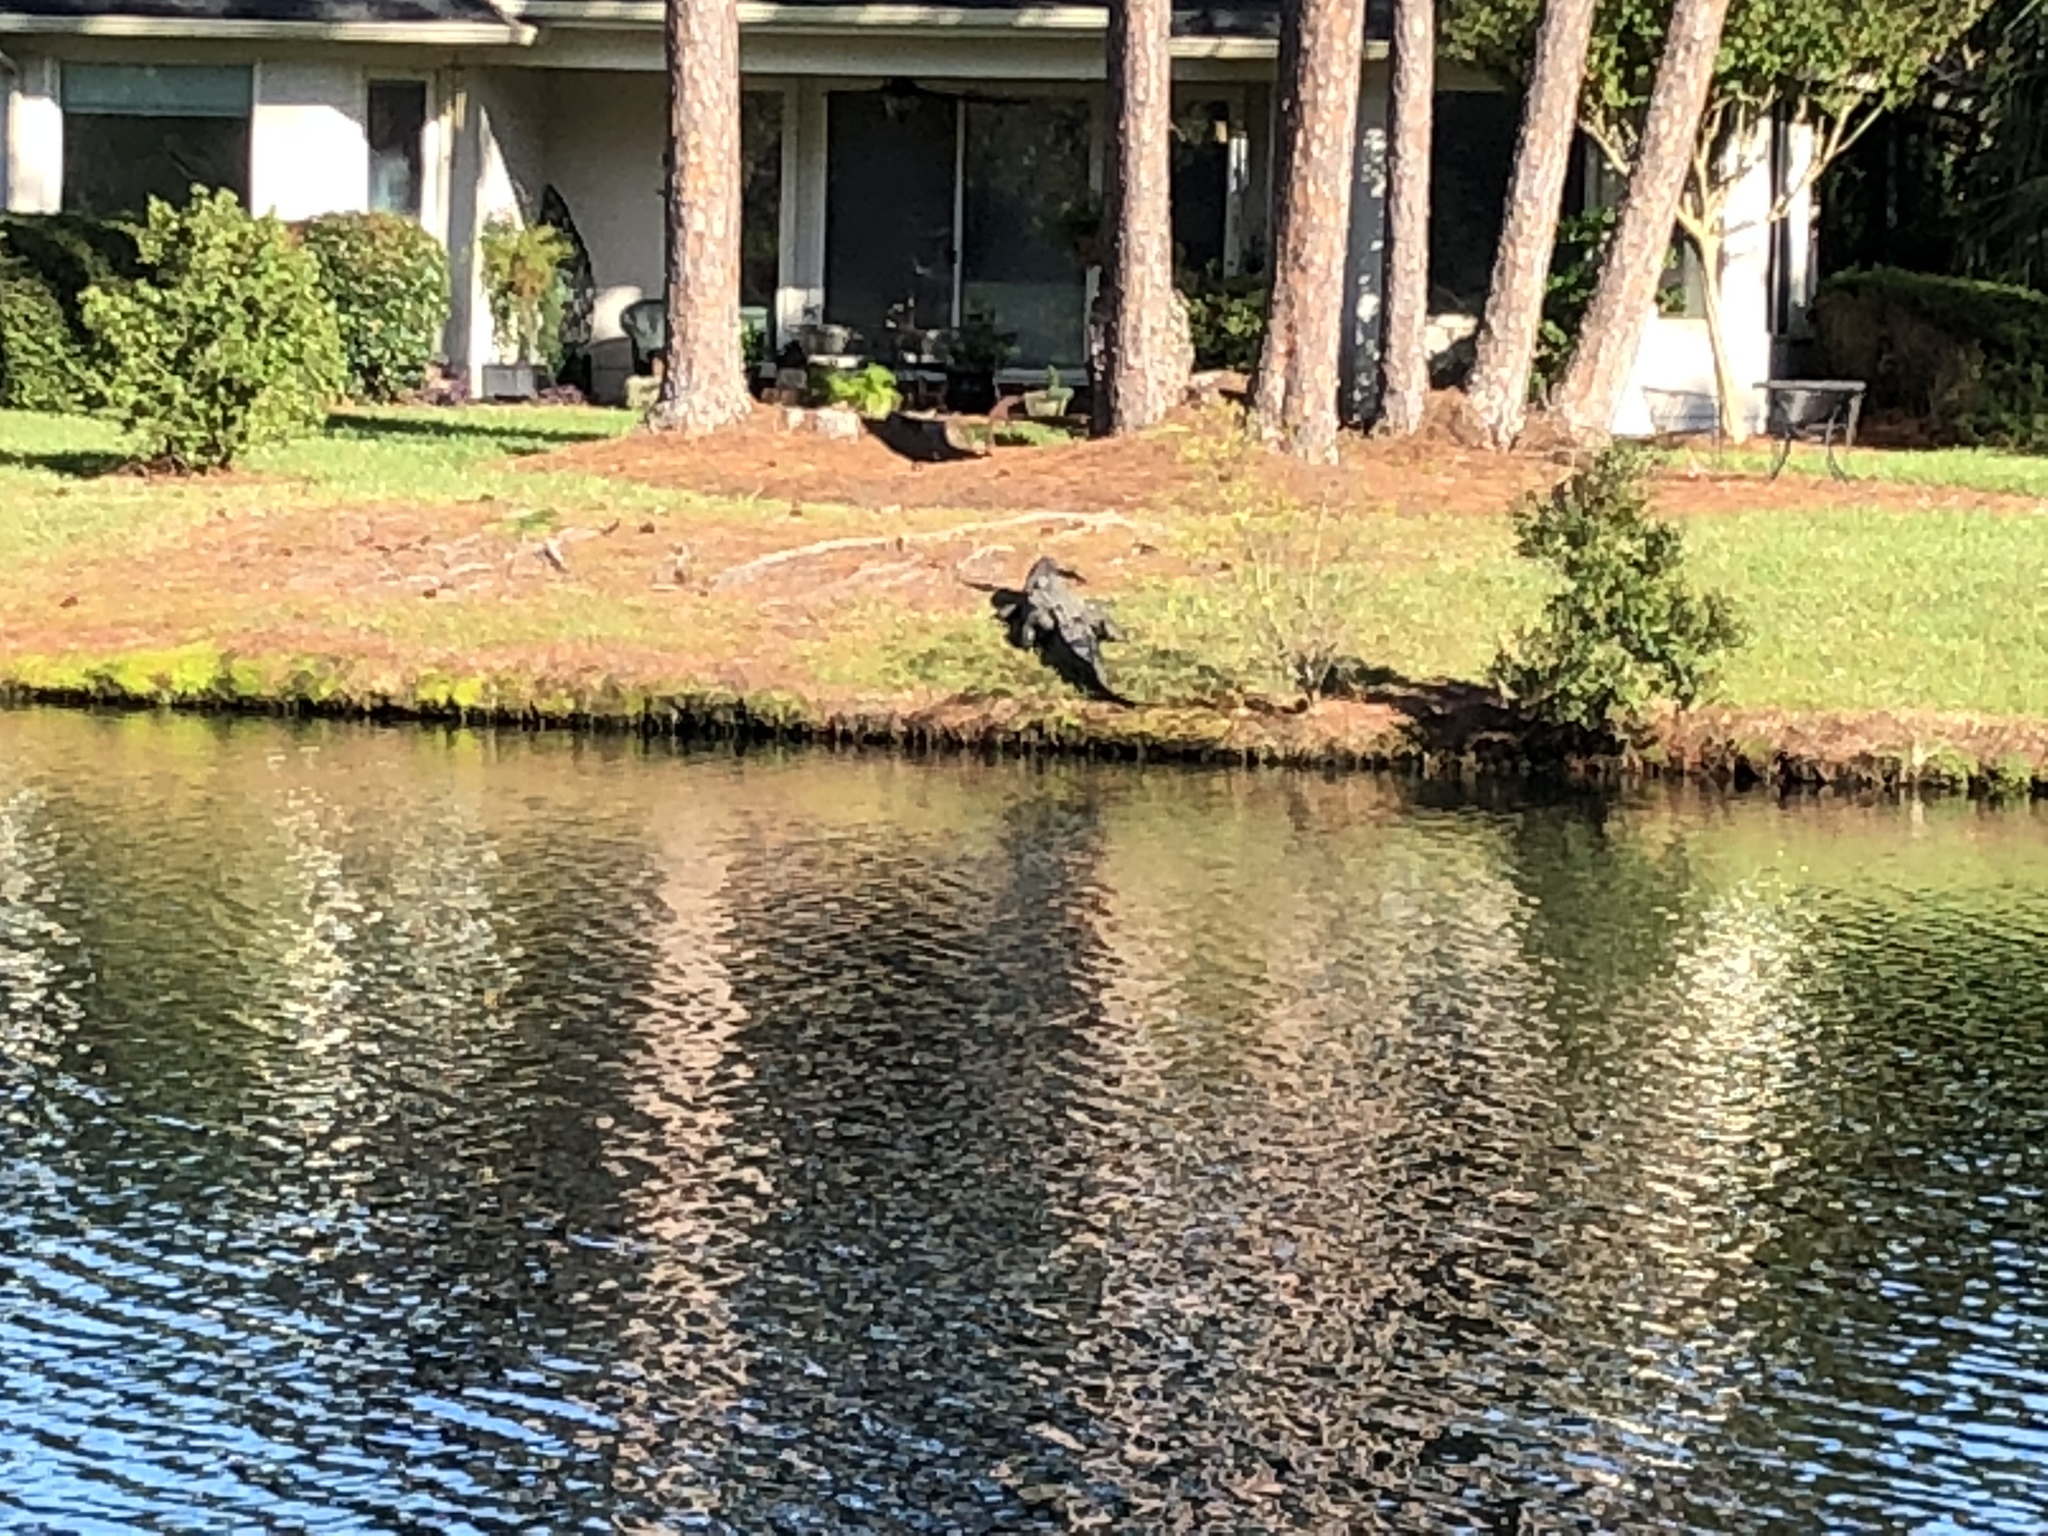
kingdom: Animalia
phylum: Chordata
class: Crocodylia
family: Alligatoridae
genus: Alligator
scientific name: Alligator mississippiensis
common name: American alligator
